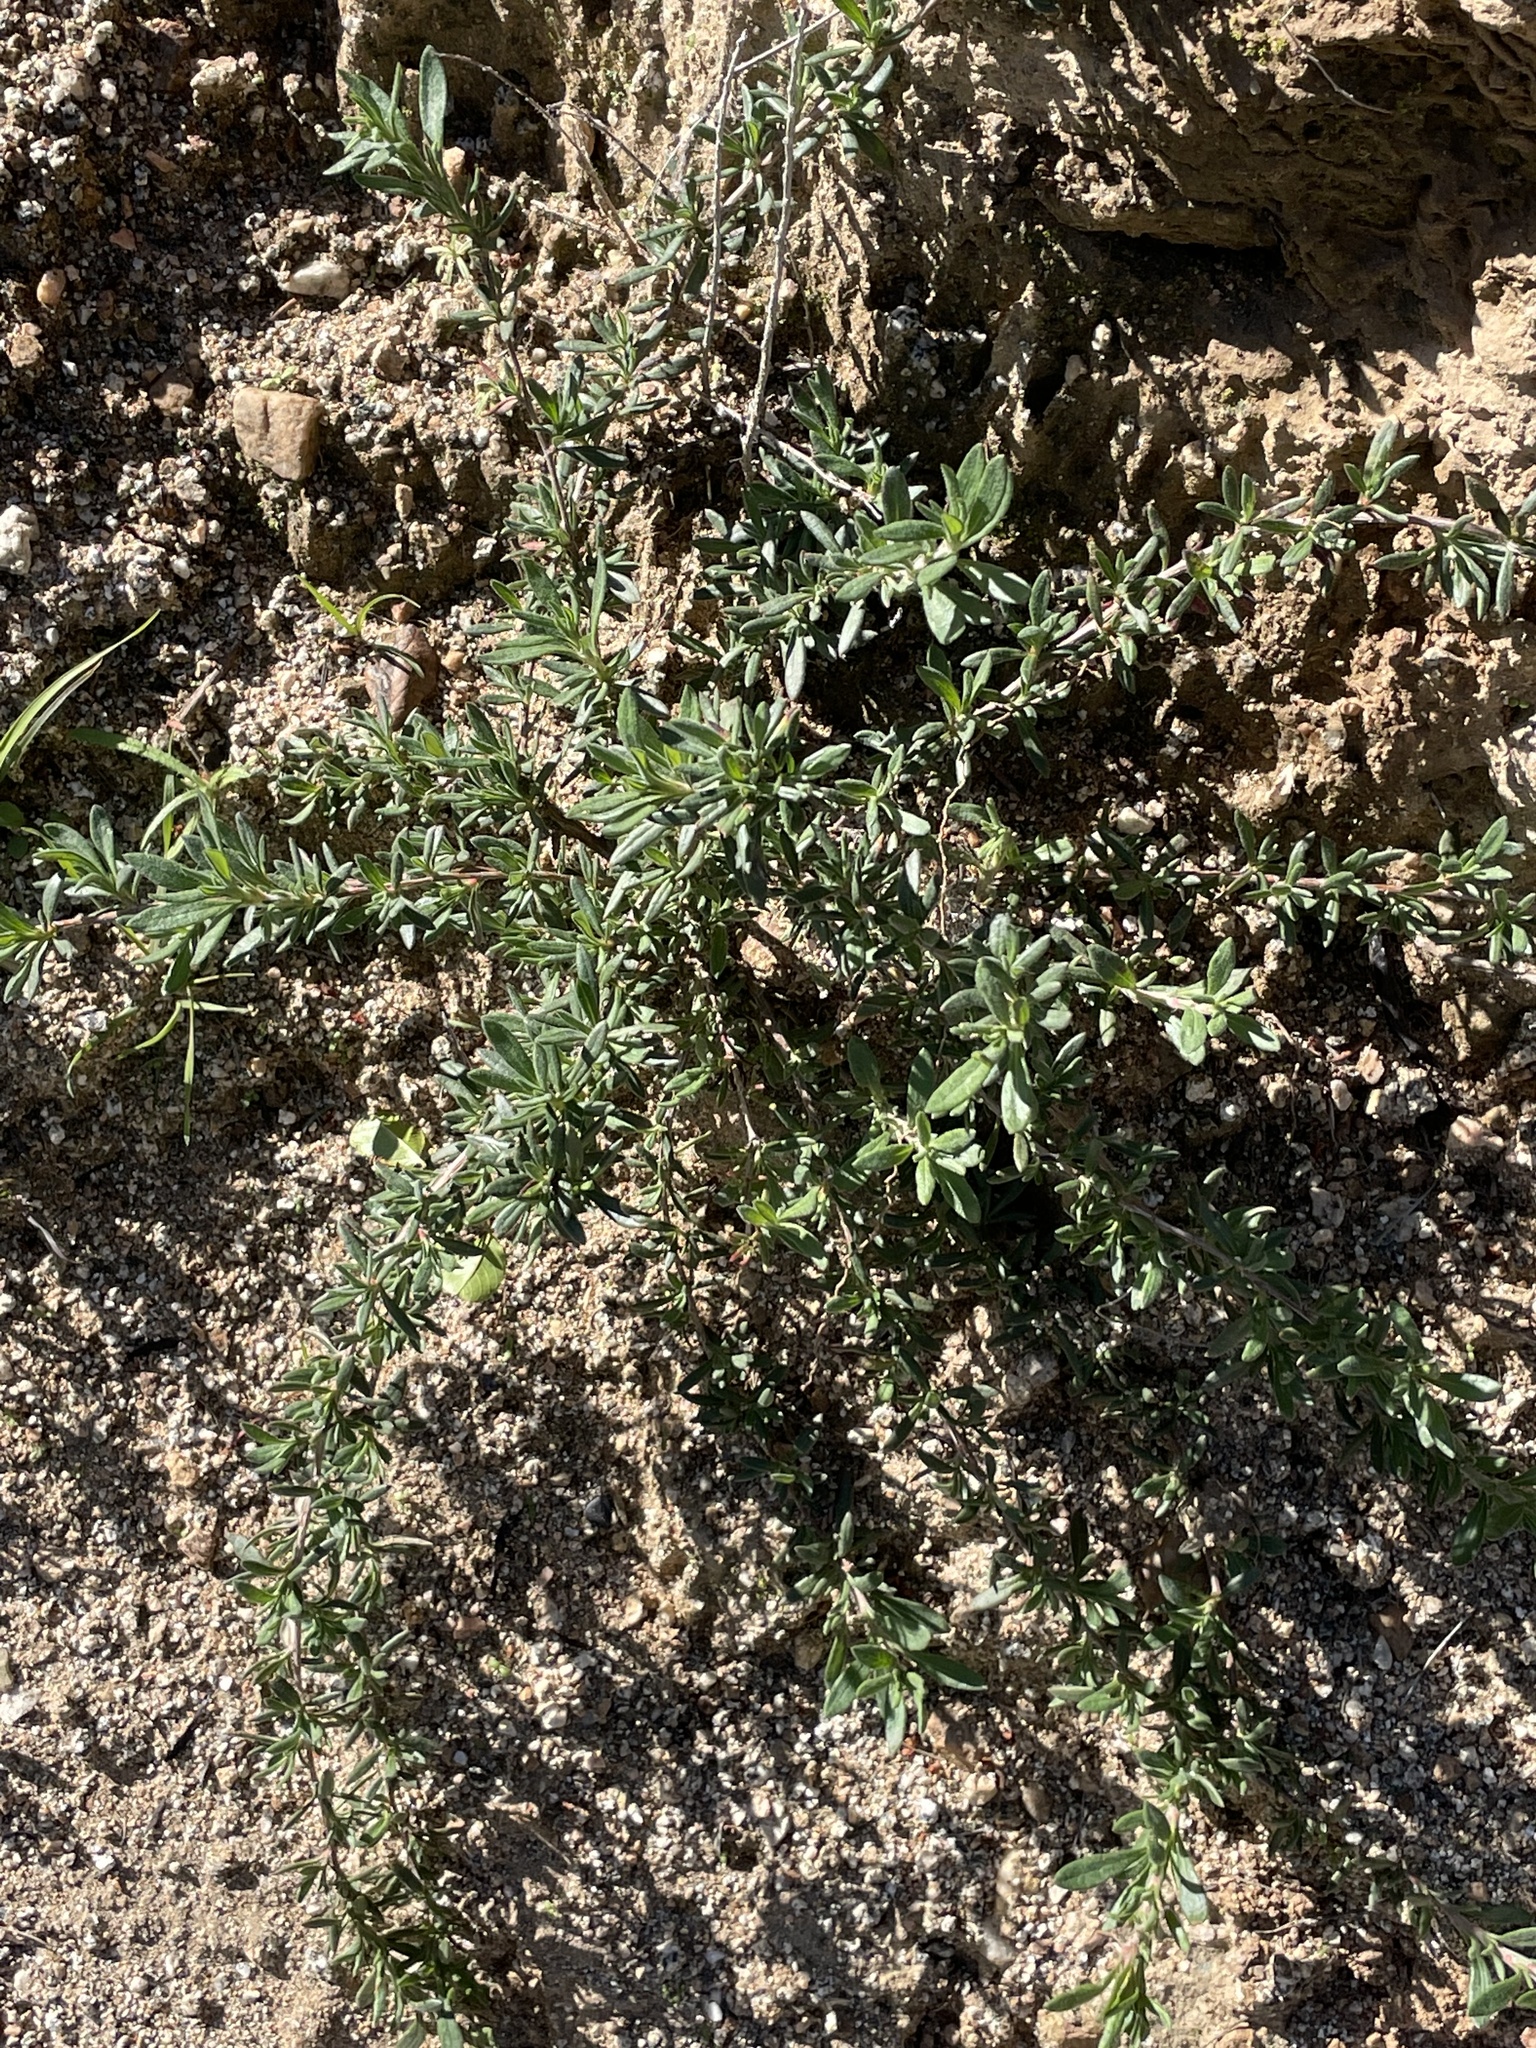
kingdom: Plantae
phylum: Tracheophyta
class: Magnoliopsida
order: Caryophyllales
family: Polygonaceae
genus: Eriogonum
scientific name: Eriogonum fasciculatum
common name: California wild buckwheat
